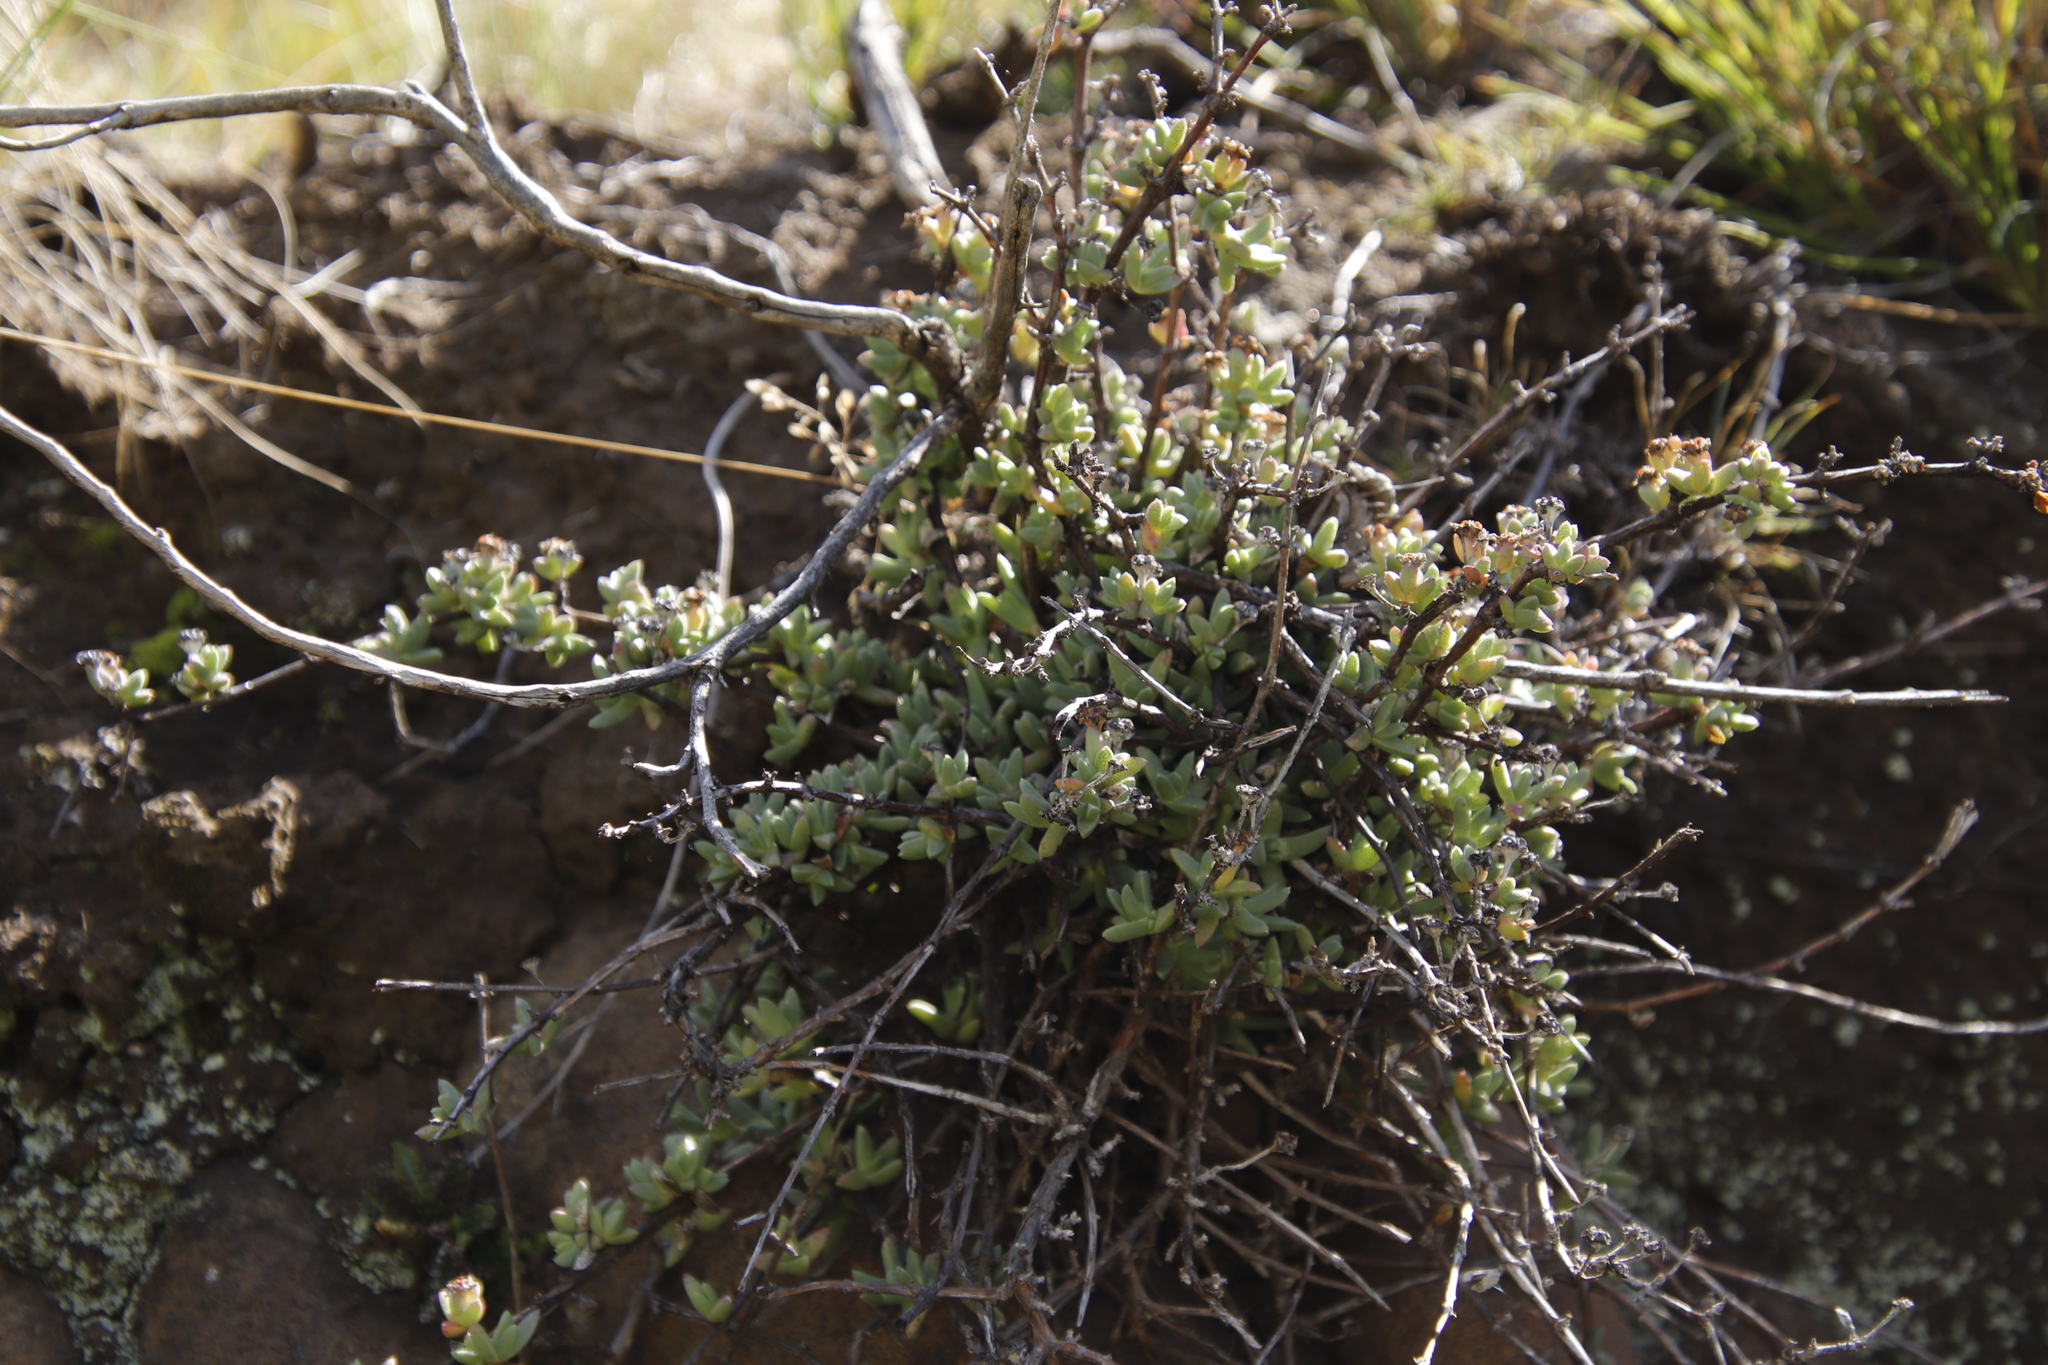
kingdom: Plantae
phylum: Tracheophyta
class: Magnoliopsida
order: Caryophyllales
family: Aizoaceae
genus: Ruschia
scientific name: Ruschia putterillii
